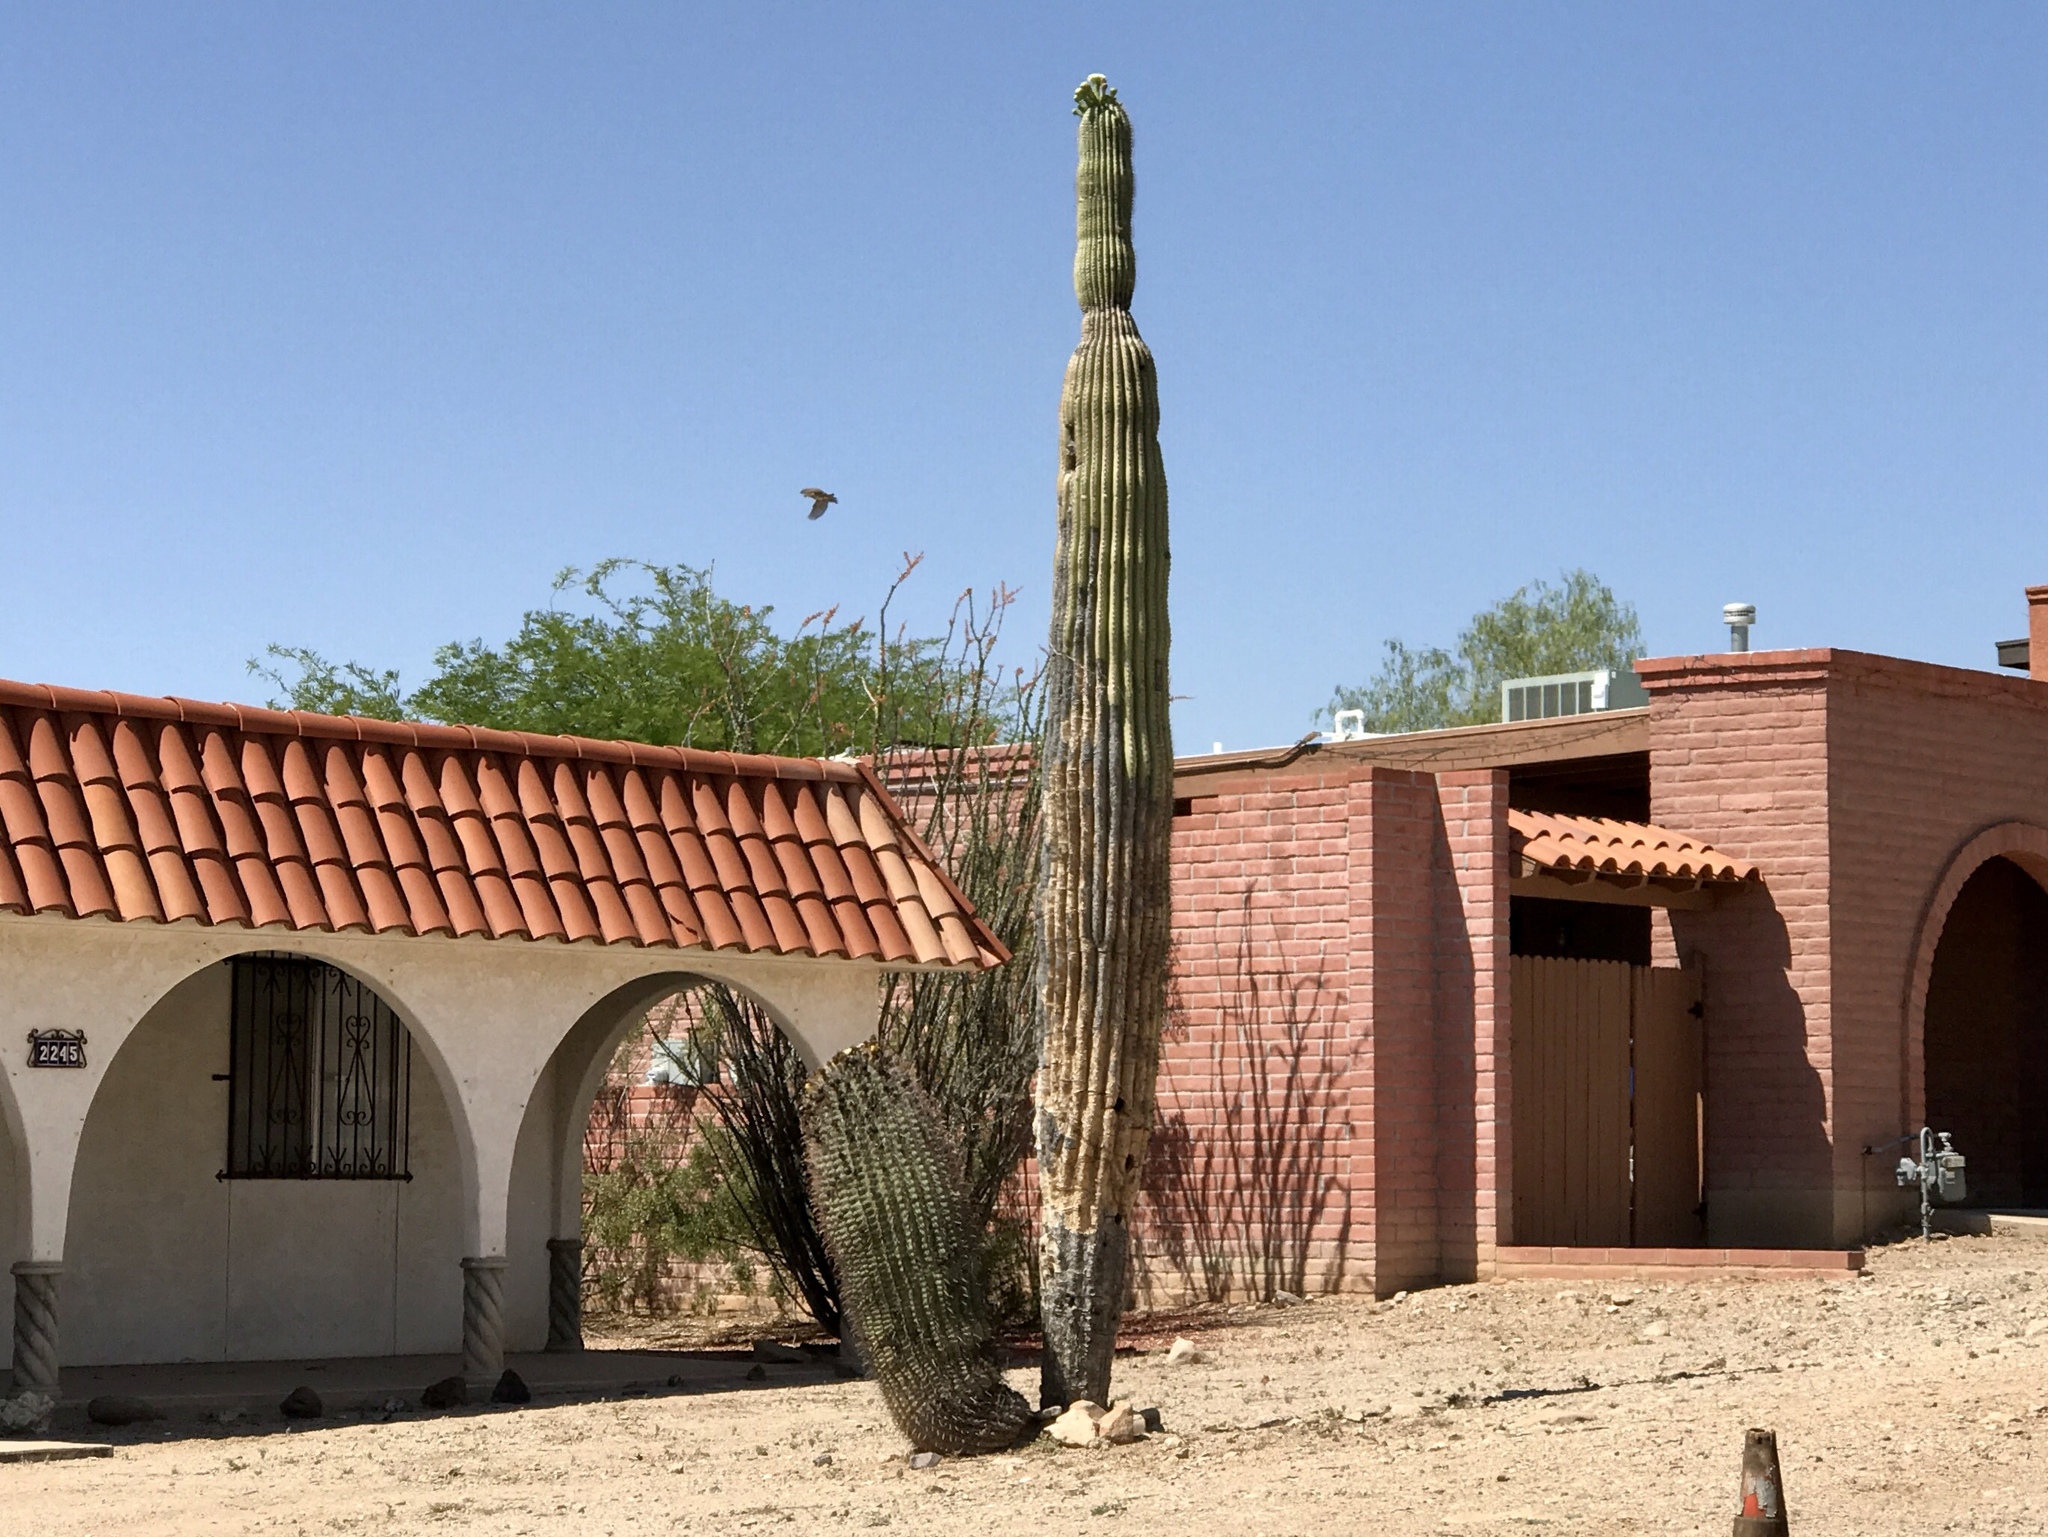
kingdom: Plantae
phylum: Tracheophyta
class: Magnoliopsida
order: Caryophyllales
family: Cactaceae
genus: Carnegiea
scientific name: Carnegiea gigantea
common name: Saguaro
